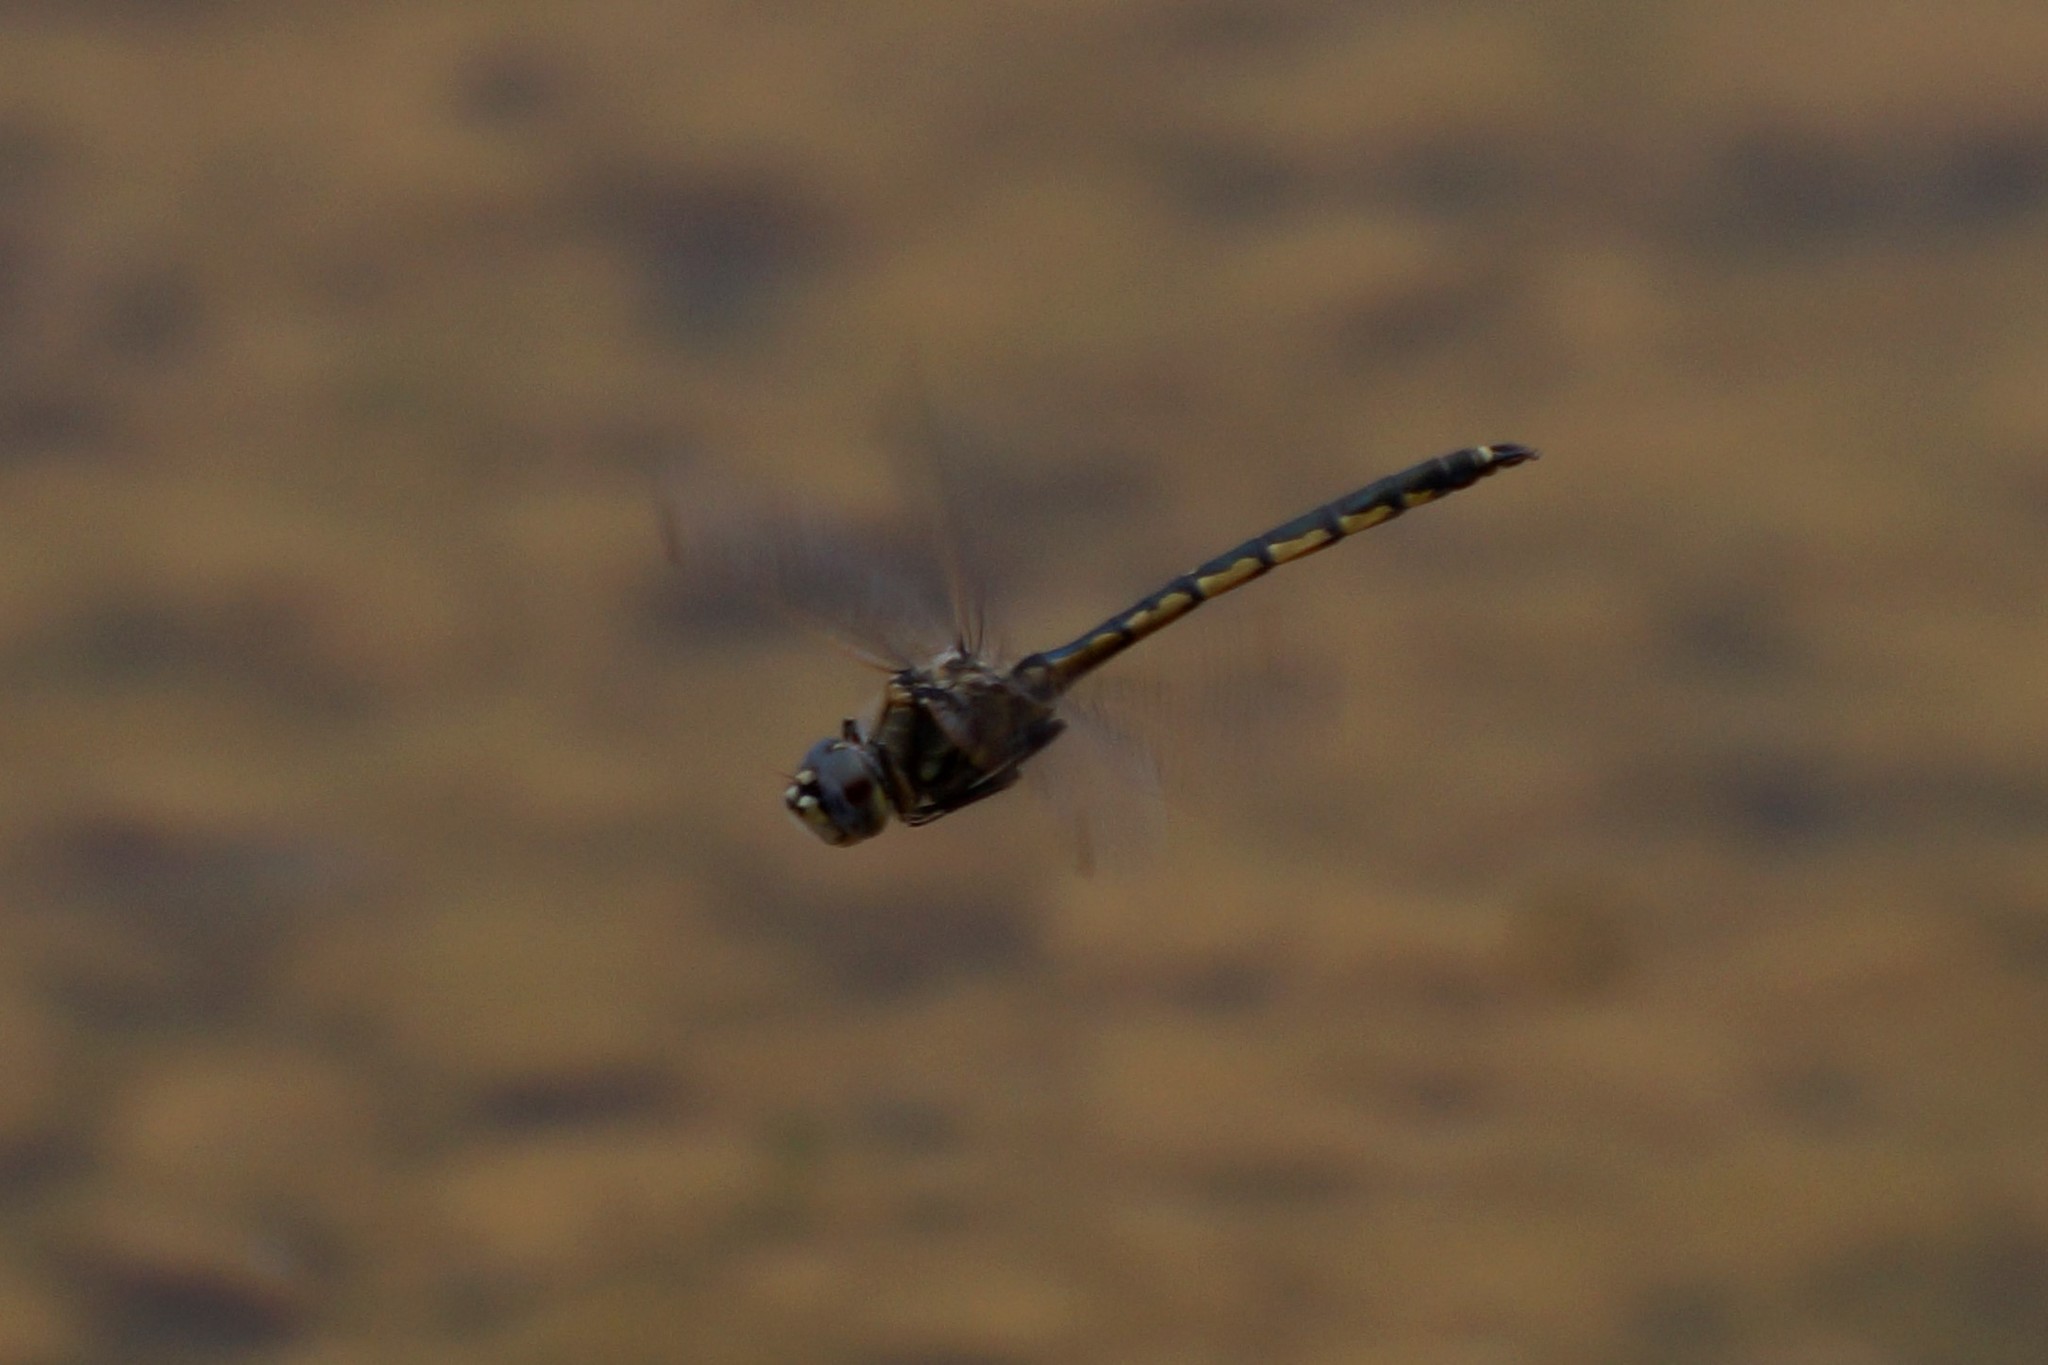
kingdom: Animalia
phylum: Arthropoda
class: Insecta
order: Odonata
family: Corduliidae
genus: Hemicordulia
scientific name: Hemicordulia tau
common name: Tau emerald
